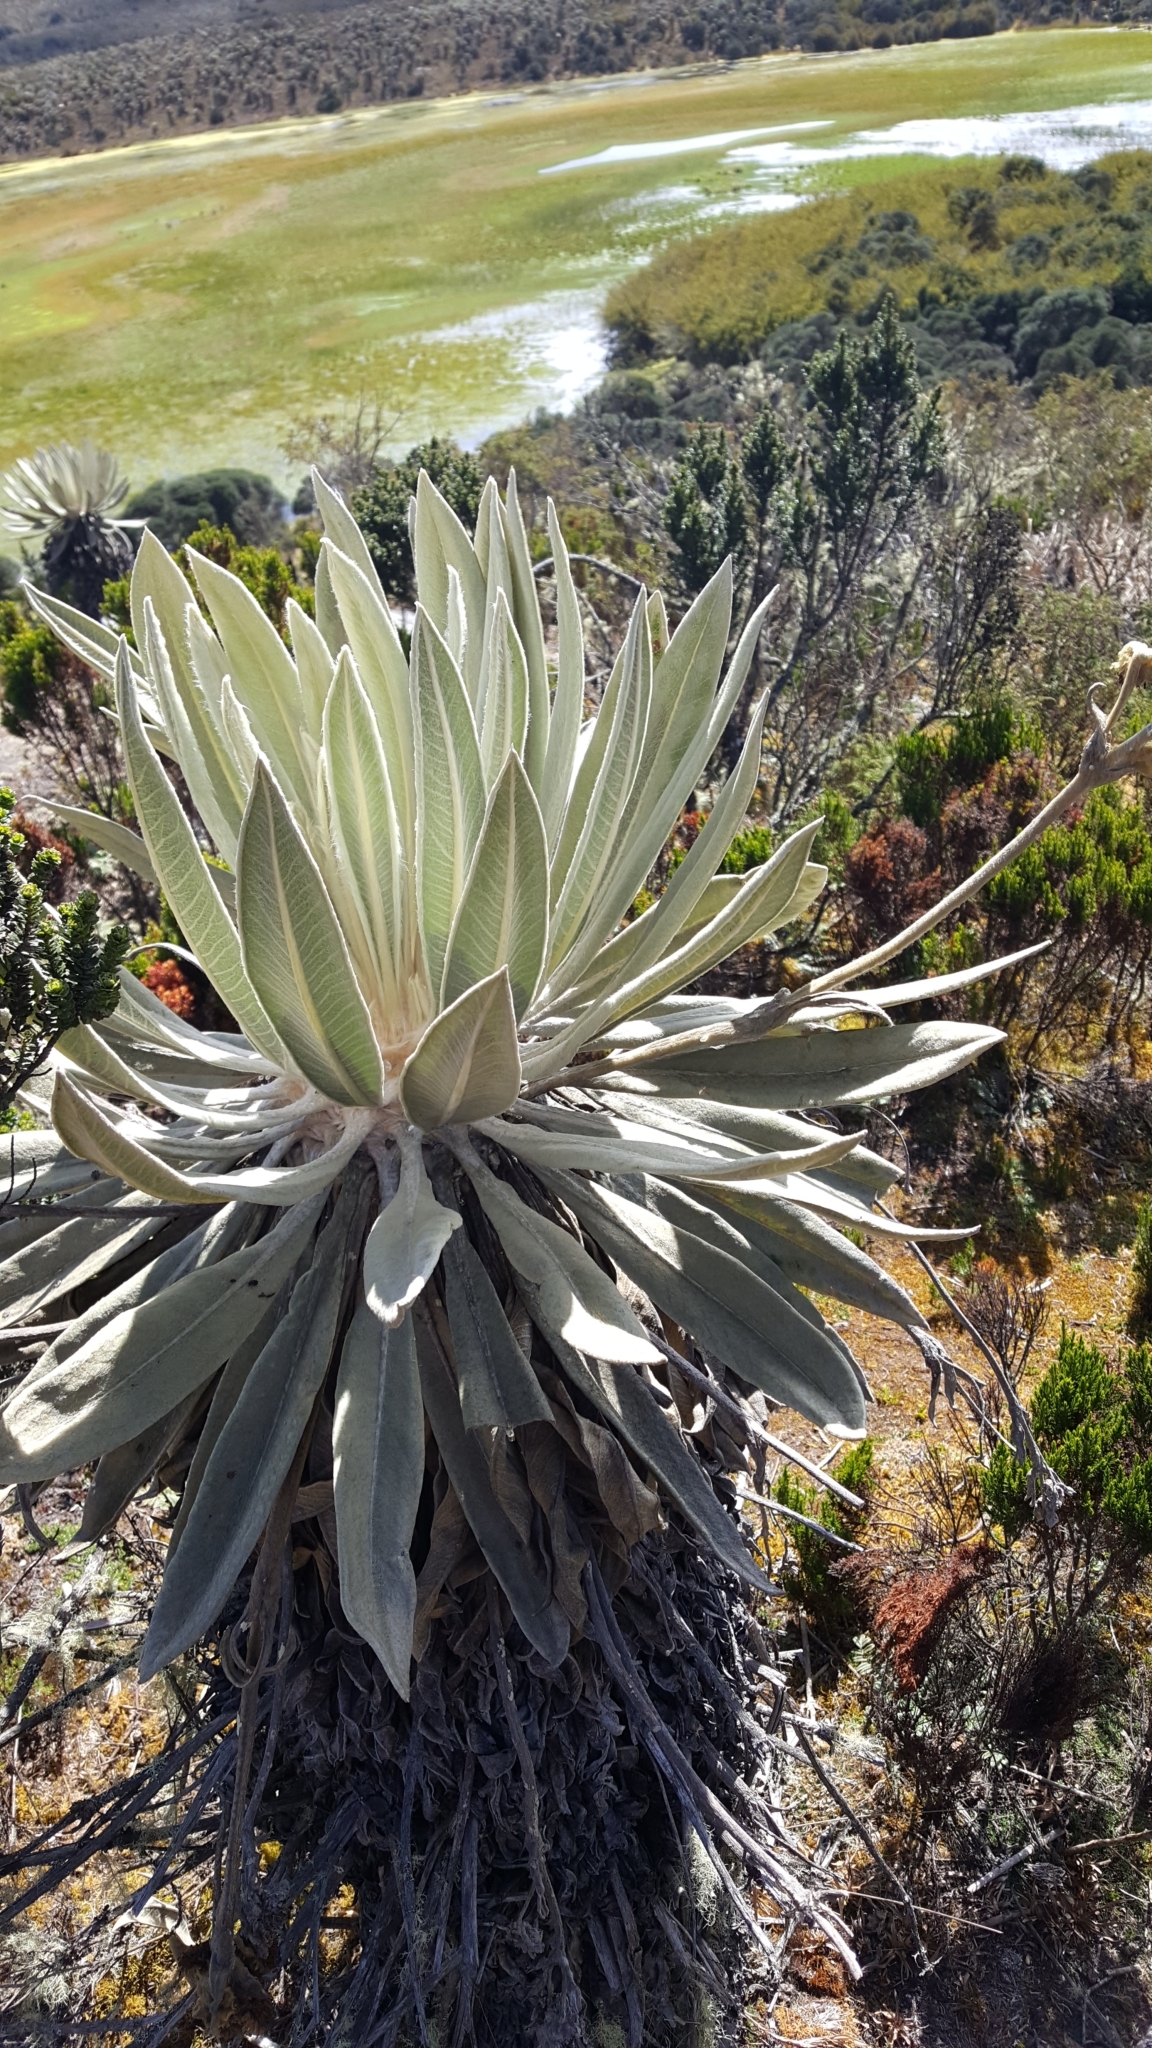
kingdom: Plantae
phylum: Tracheophyta
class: Magnoliopsida
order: Asterales
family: Asteraceae
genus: Espeletia
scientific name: Espeletia grandiflora
